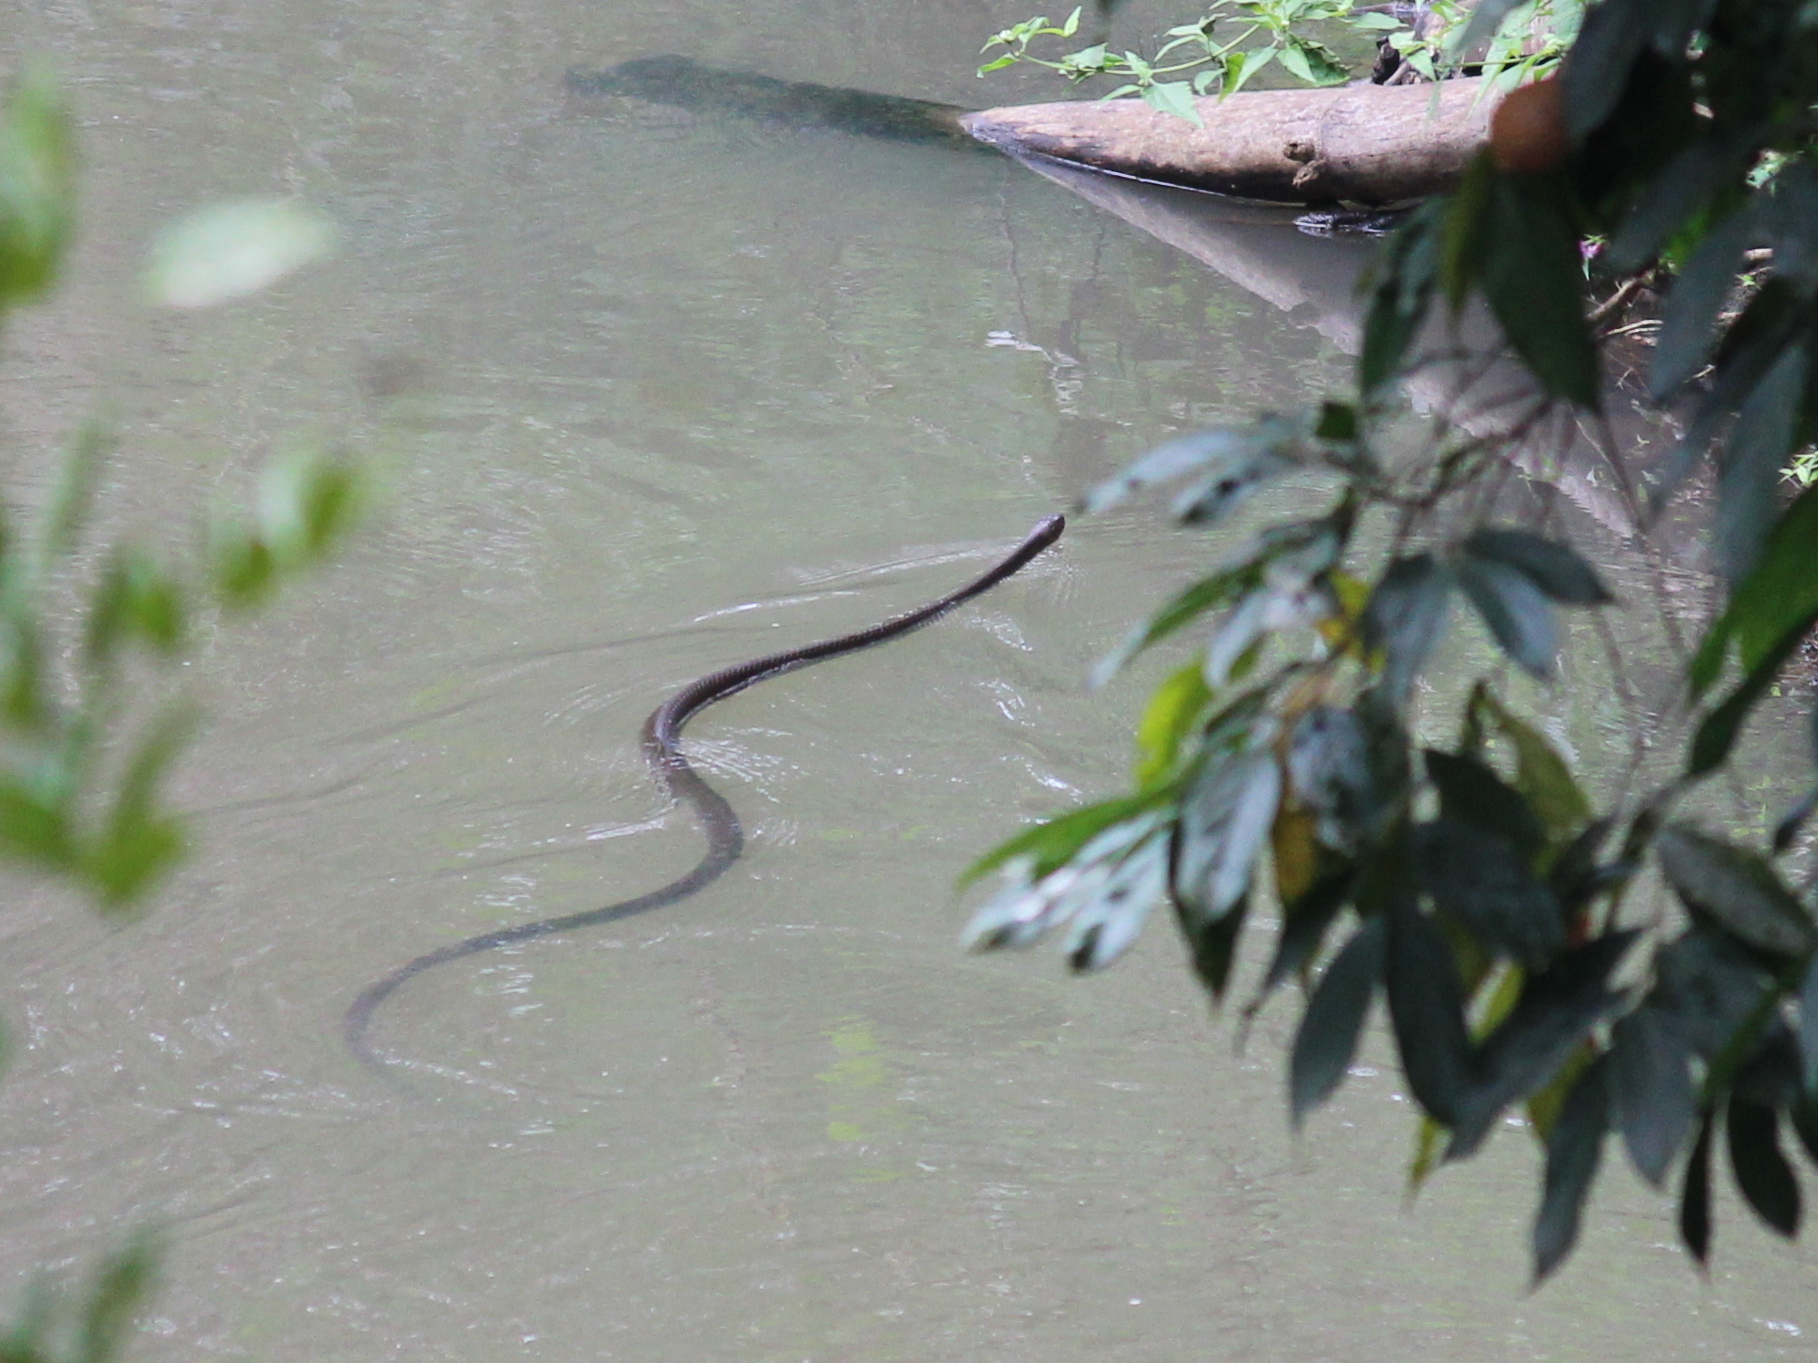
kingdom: Animalia
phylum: Chordata
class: Squamata
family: Colubridae
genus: Ptyas
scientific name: Ptyas mucosa
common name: Oriental ratsnake
